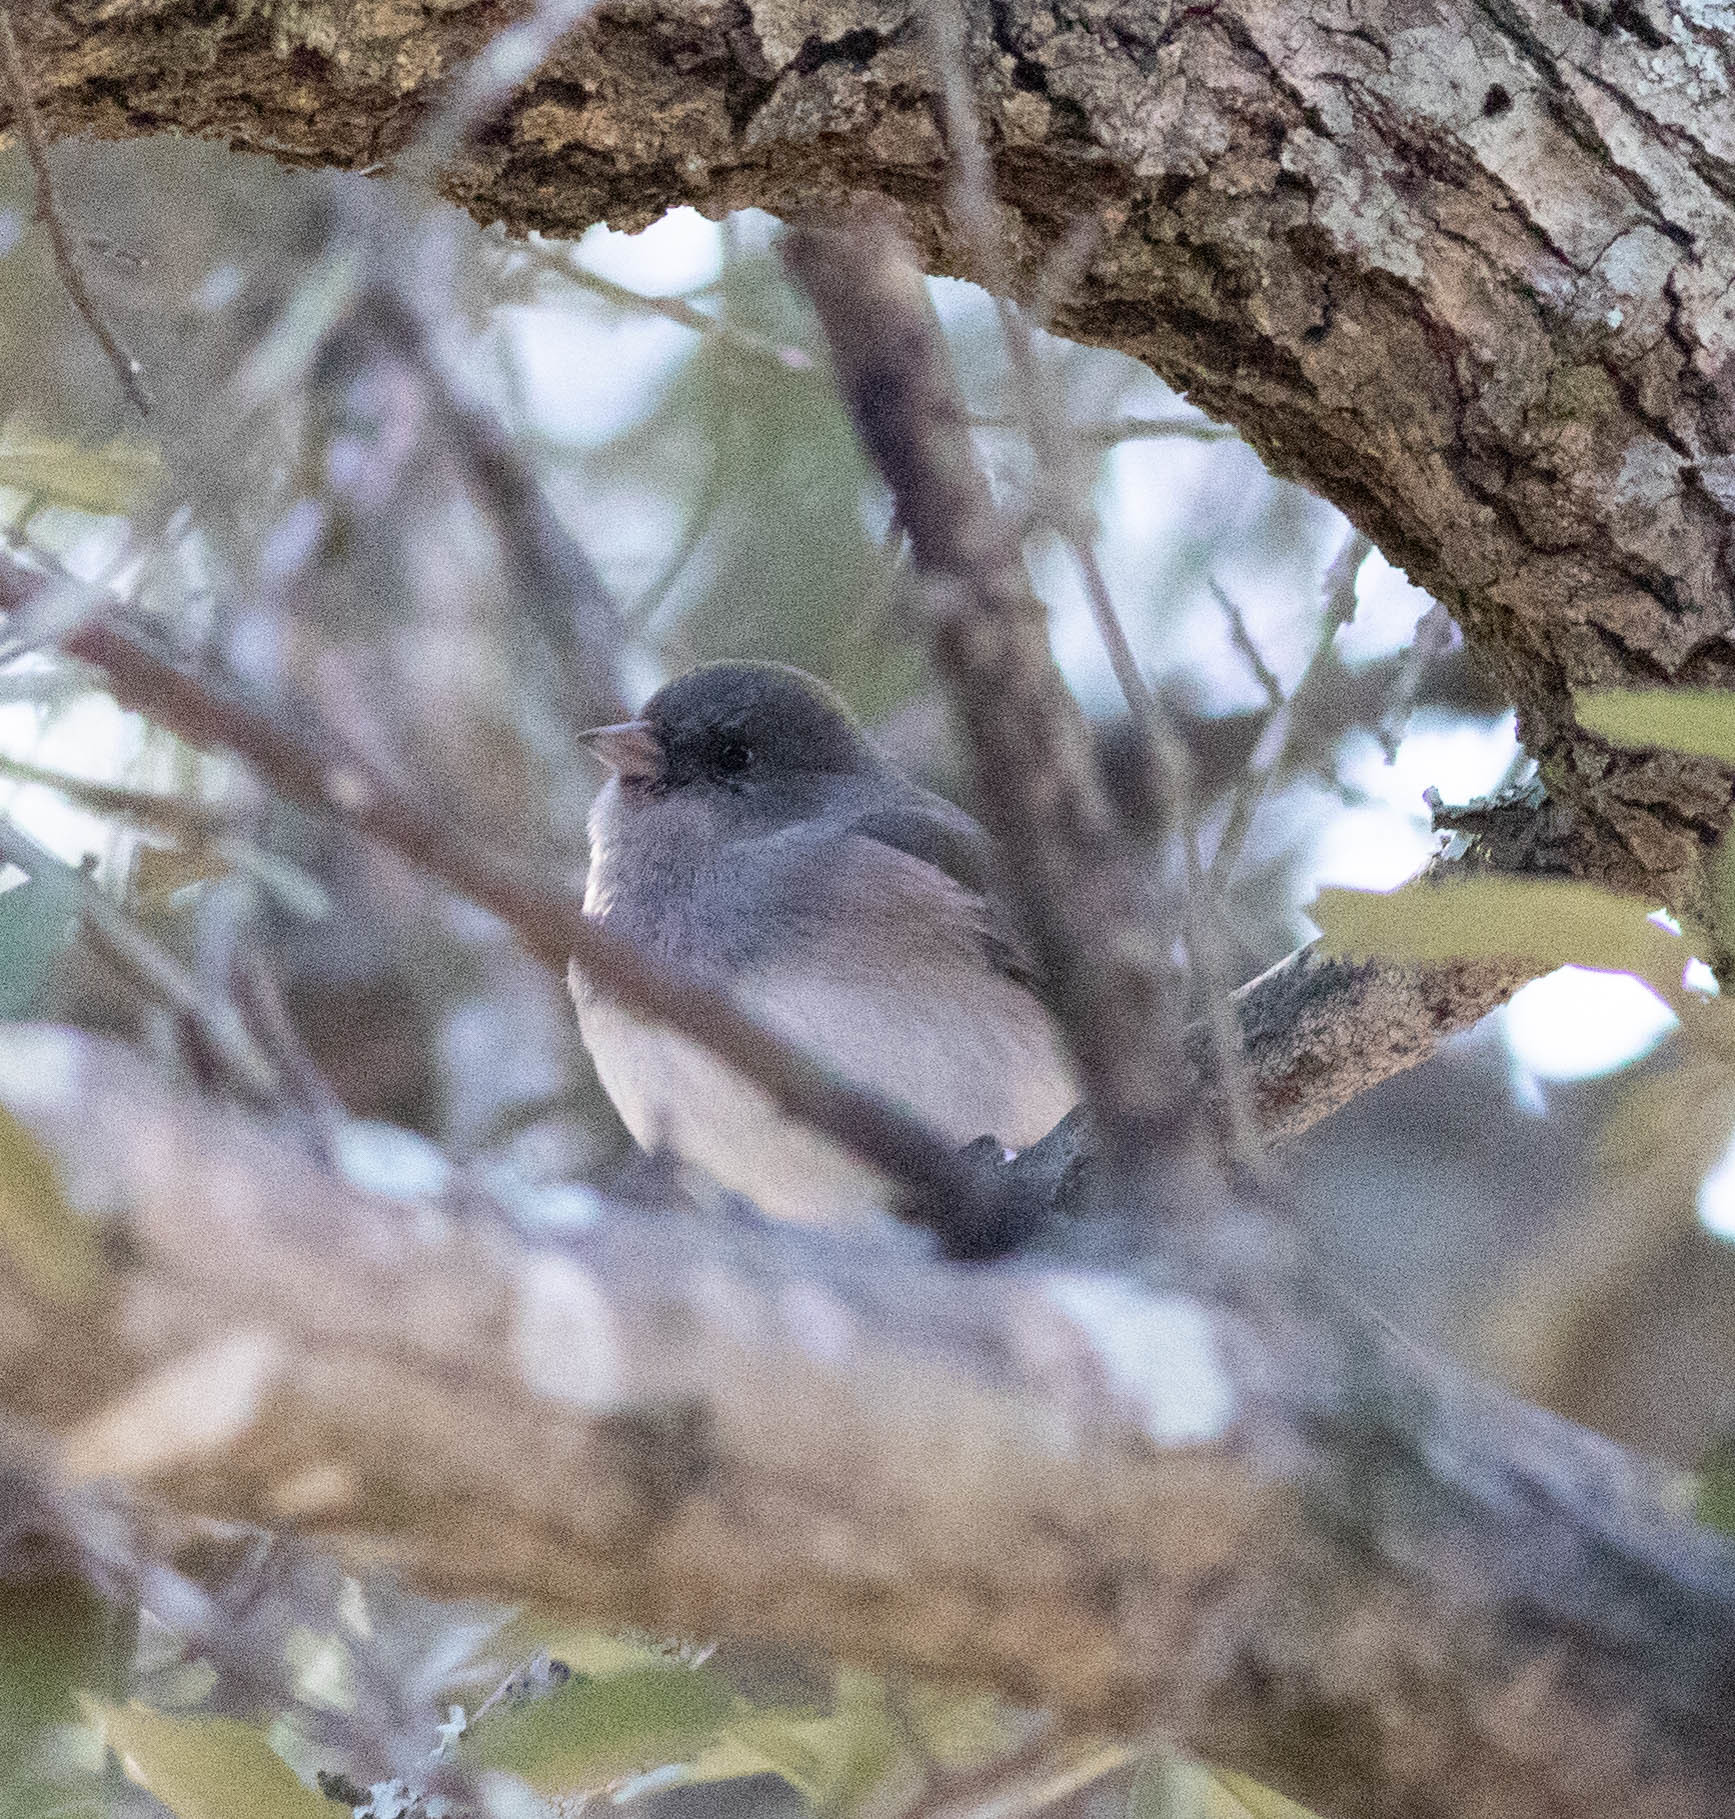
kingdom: Animalia
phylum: Chordata
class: Aves
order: Passeriformes
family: Passerellidae
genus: Junco
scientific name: Junco hyemalis
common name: Dark-eyed junco
